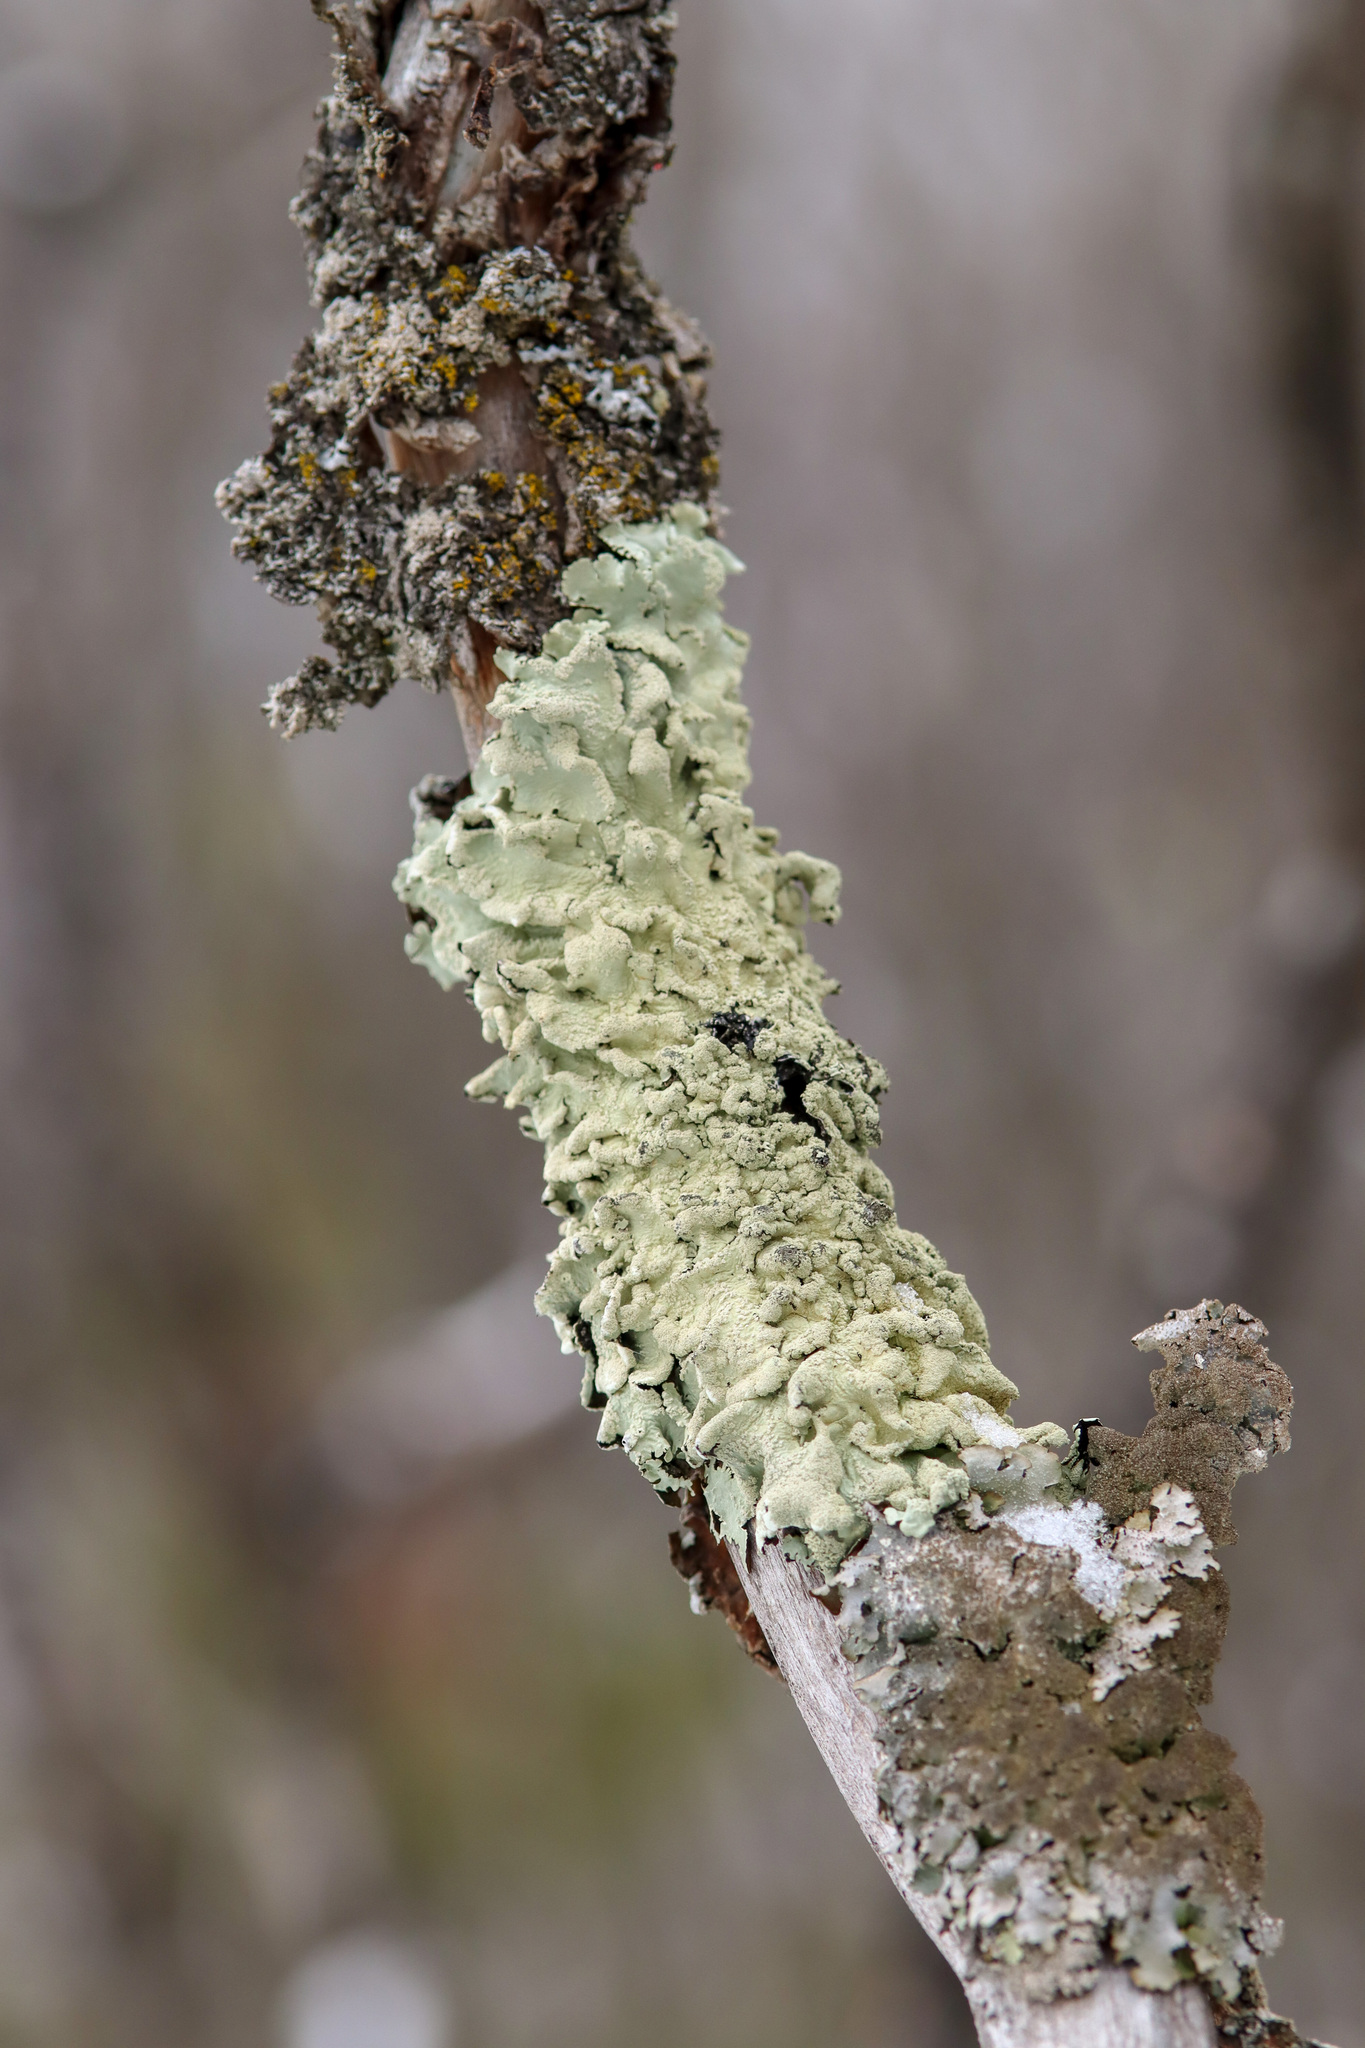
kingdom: Fungi
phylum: Ascomycota
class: Lecanoromycetes
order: Lecanorales
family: Parmeliaceae
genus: Flavoparmelia
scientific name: Flavoparmelia caperata
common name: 40-mile per hour lichen
